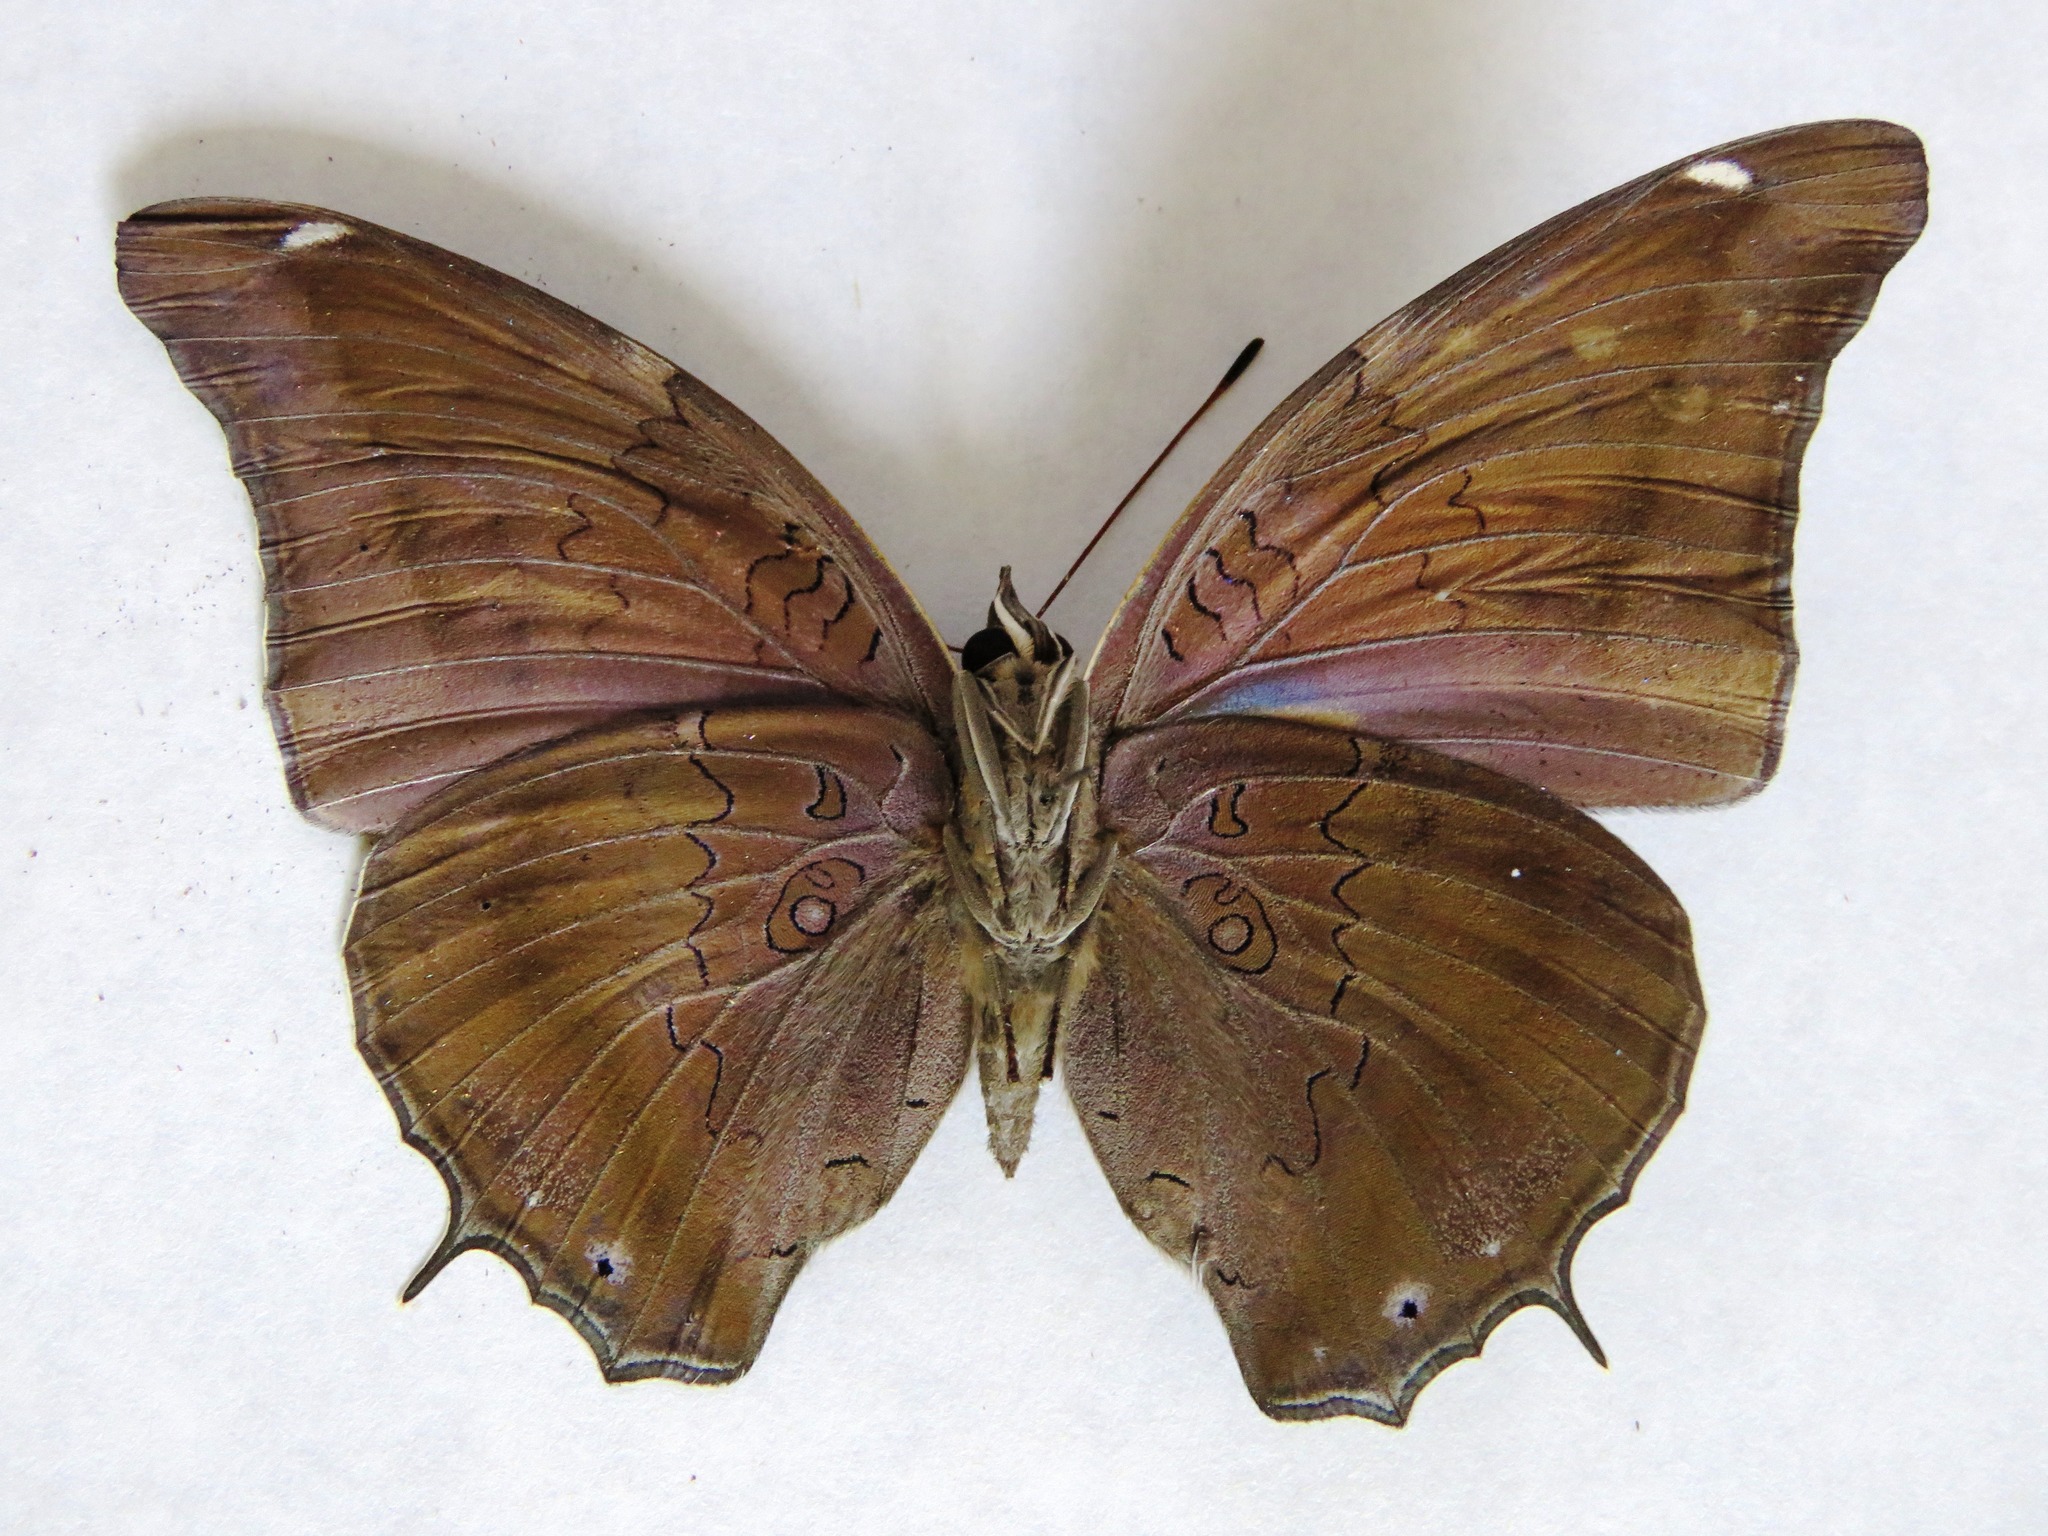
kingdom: Animalia
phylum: Arthropoda
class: Insecta
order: Lepidoptera
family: Nymphalidae
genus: Coea
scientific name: Coea acheronta
